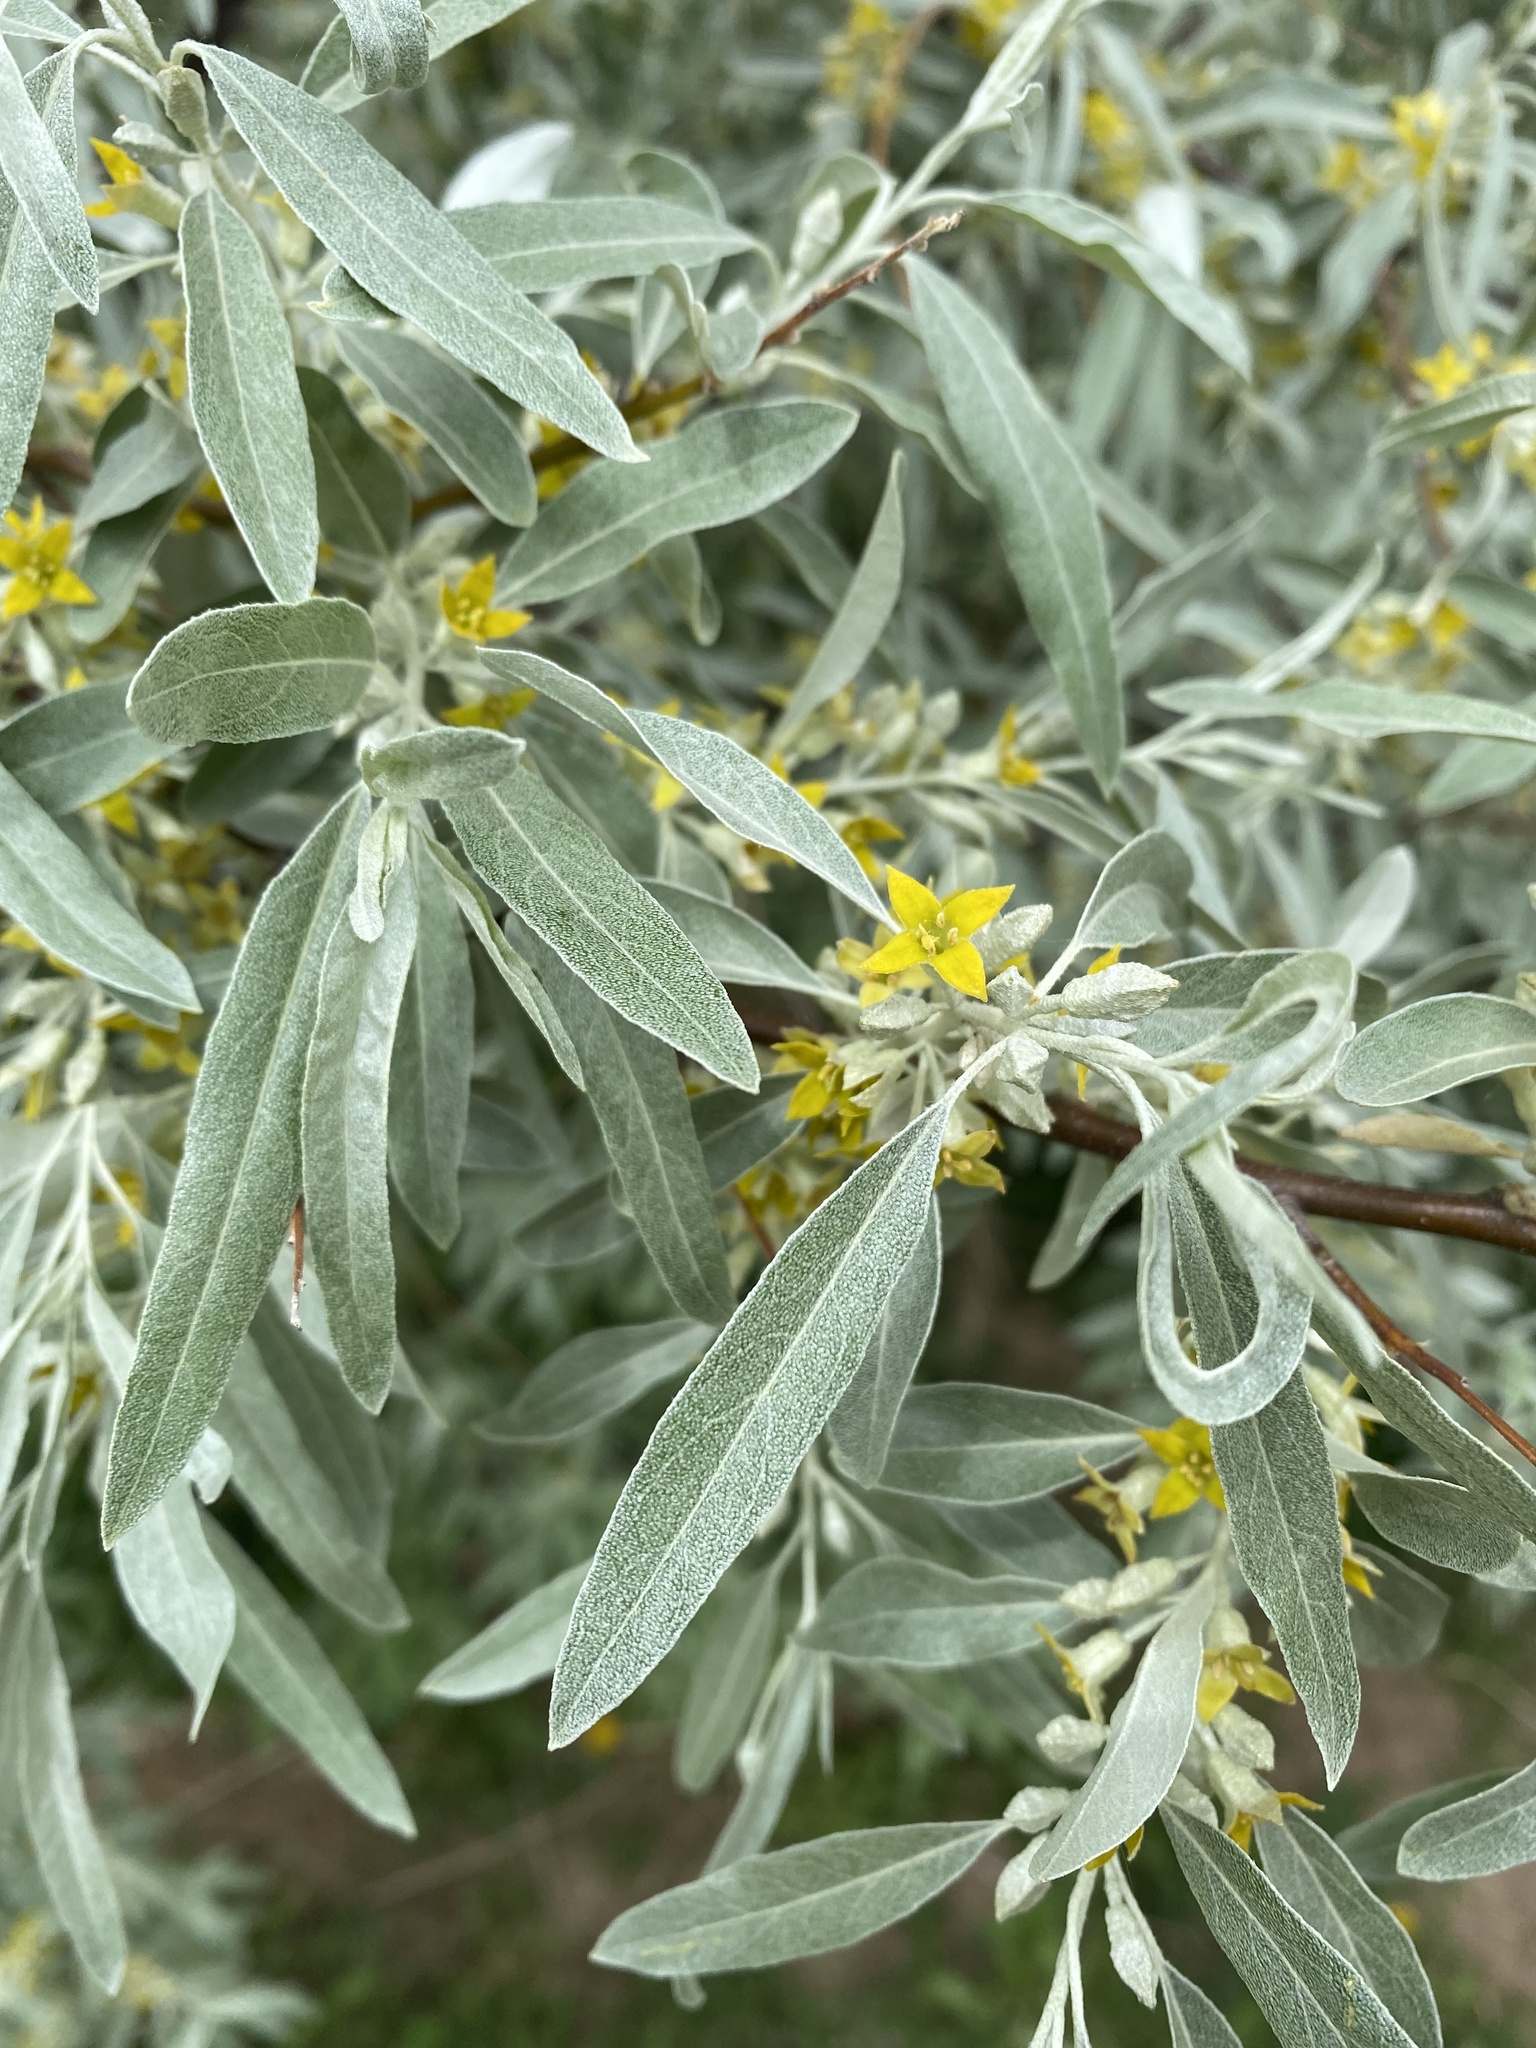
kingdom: Plantae
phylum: Tracheophyta
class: Magnoliopsida
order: Rosales
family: Elaeagnaceae
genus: Elaeagnus
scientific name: Elaeagnus angustifolia
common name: Russian olive
